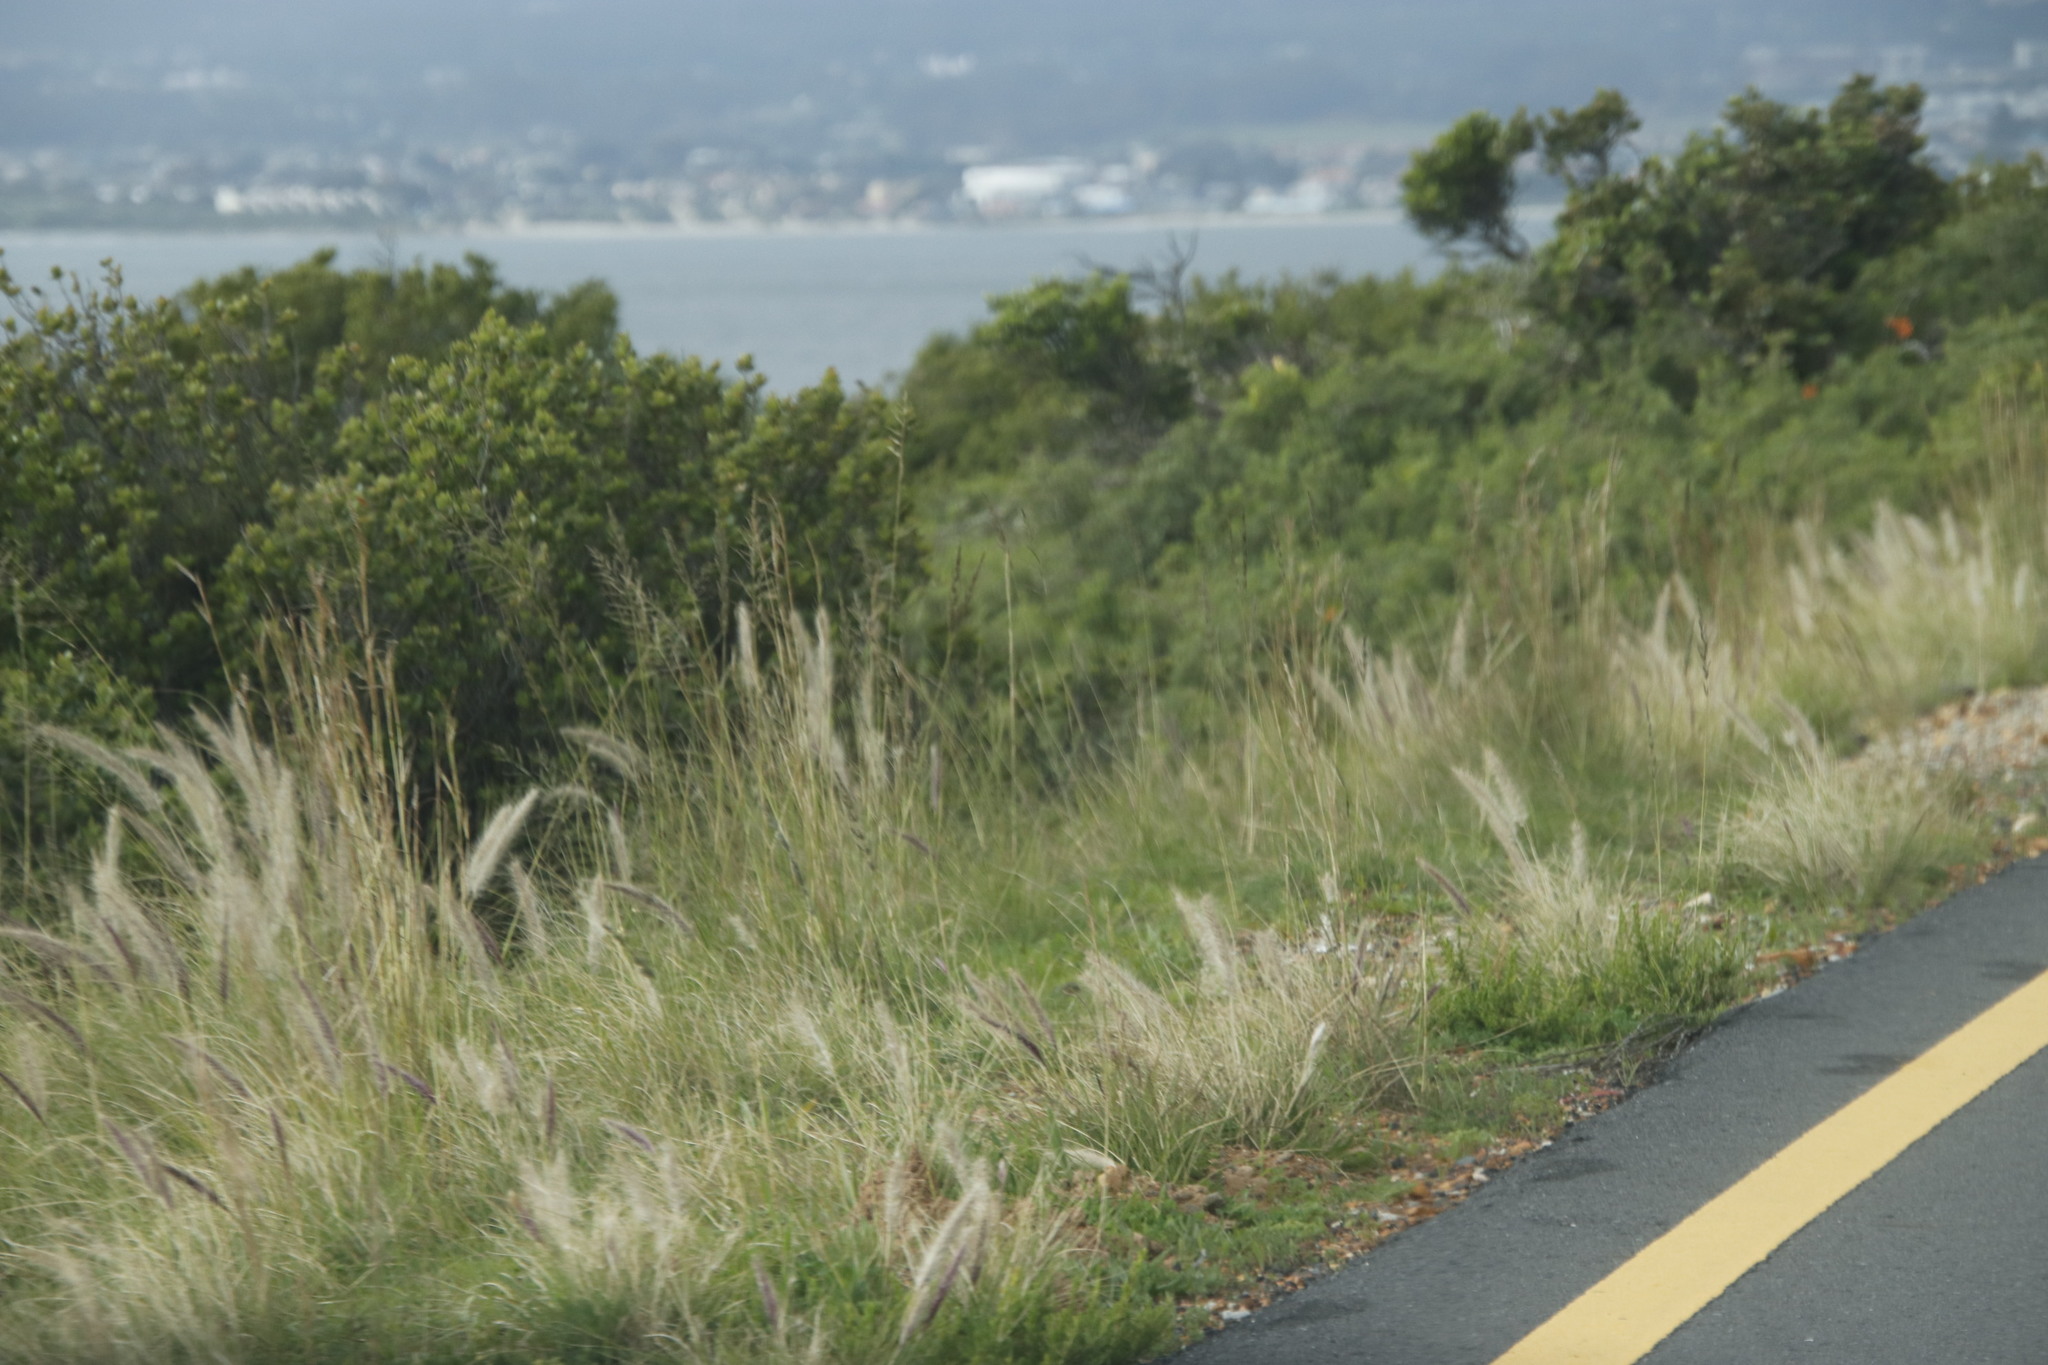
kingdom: Plantae
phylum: Tracheophyta
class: Liliopsida
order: Poales
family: Poaceae
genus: Cenchrus
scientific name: Cenchrus setaceus
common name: Crimson fountaingrass
